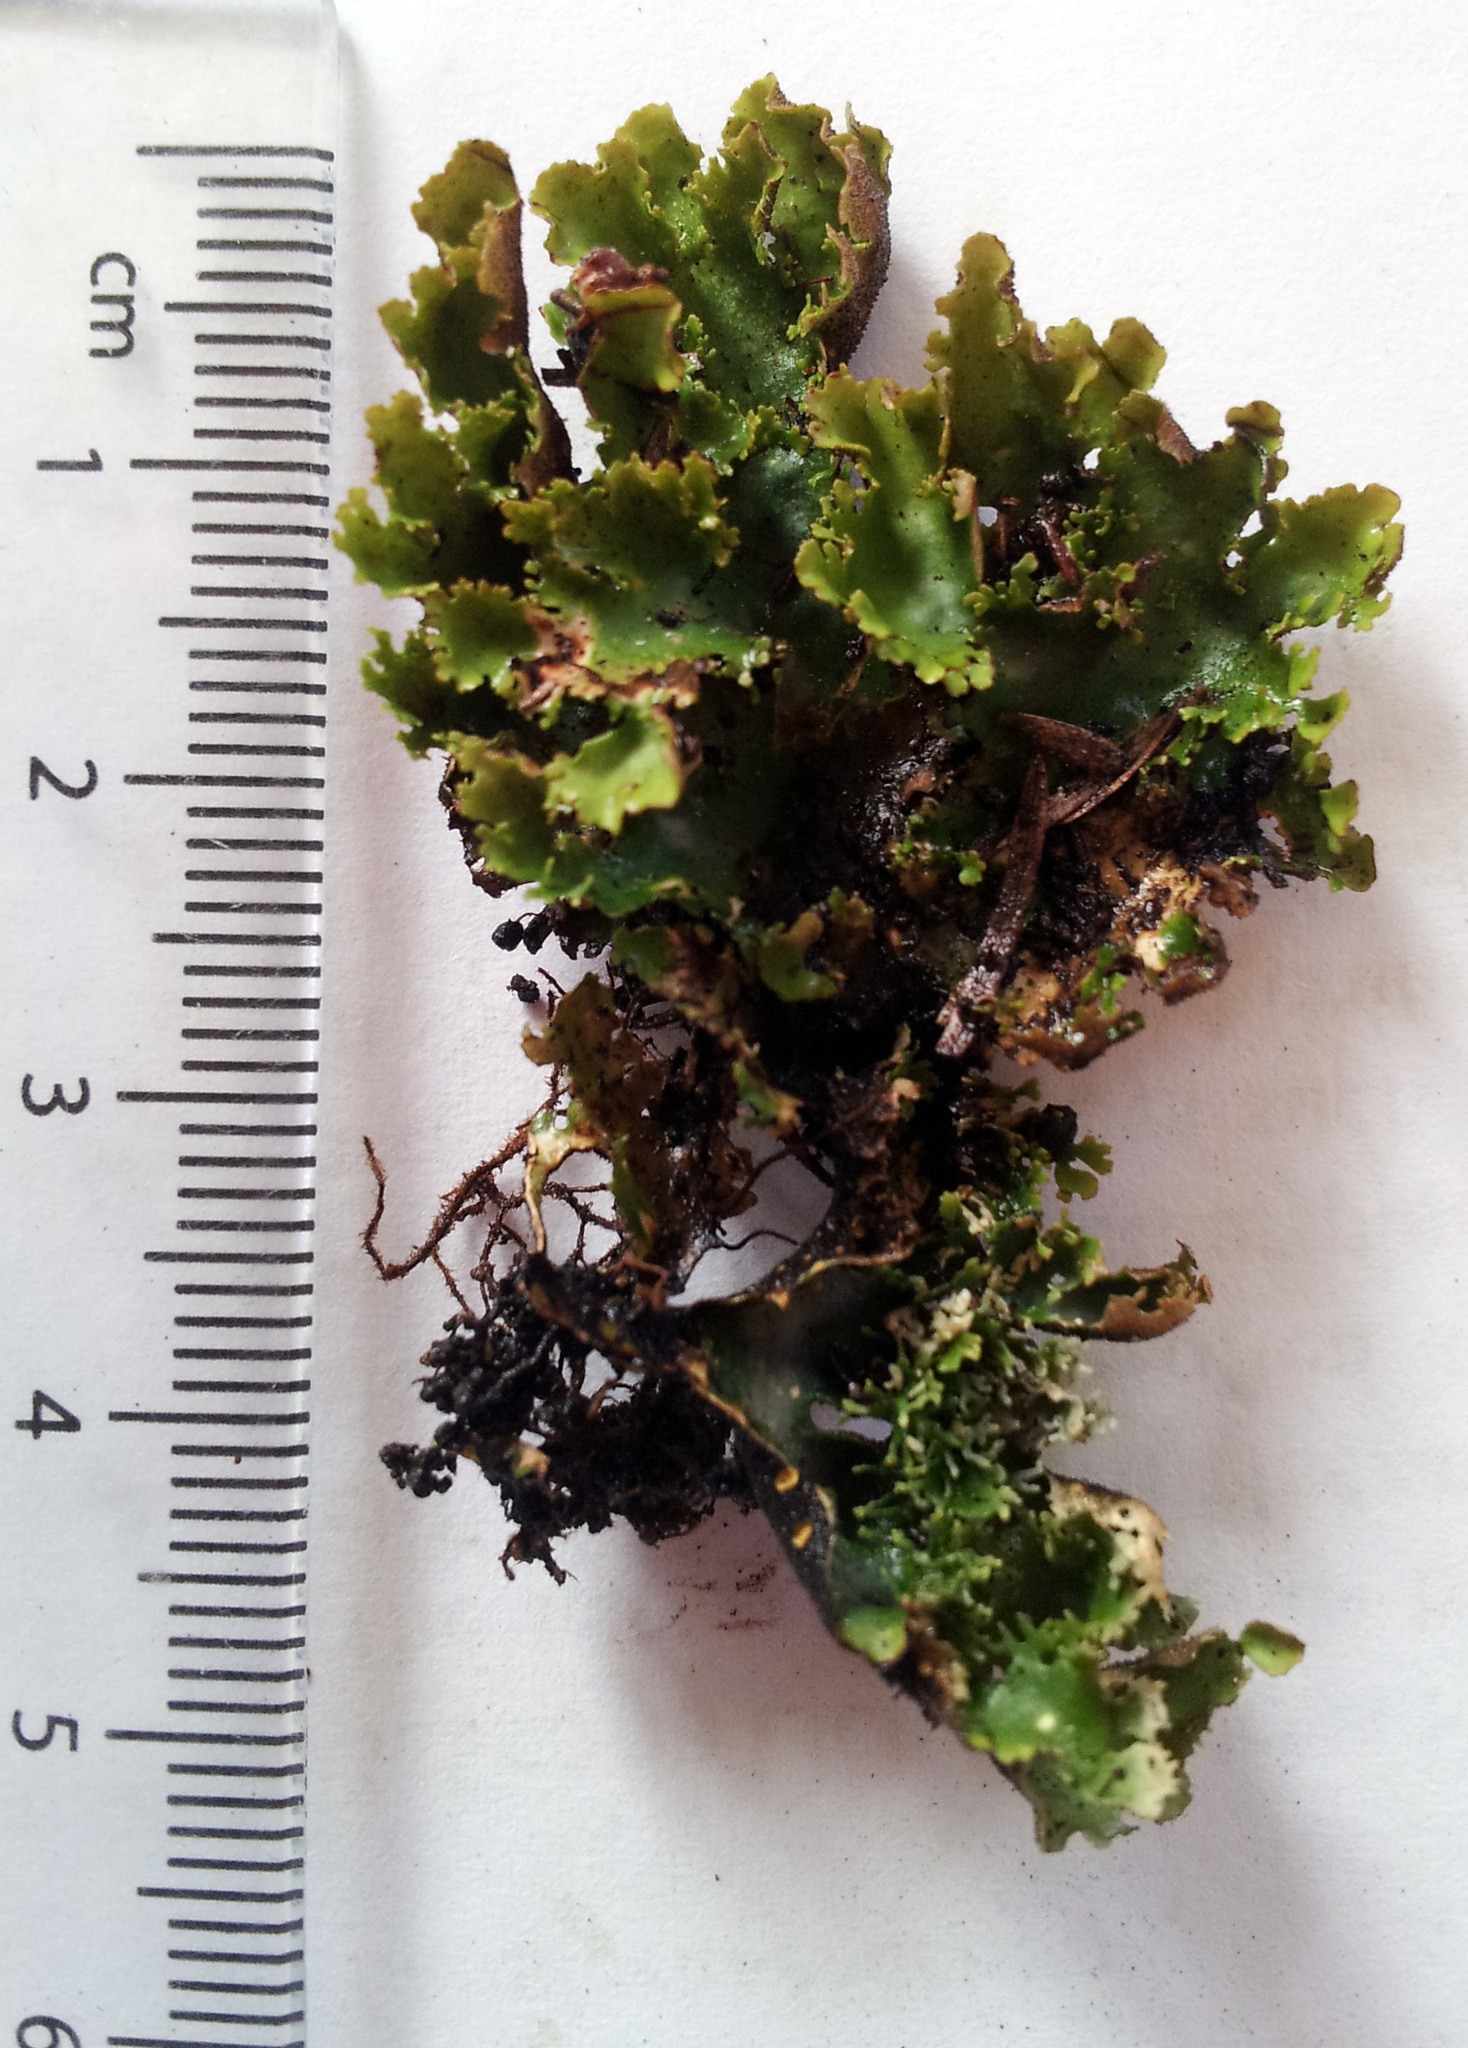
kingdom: Fungi
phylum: Ascomycota
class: Lecanoromycetes
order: Peltigerales
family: Lobariaceae
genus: Sticta
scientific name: Sticta babingtonii
